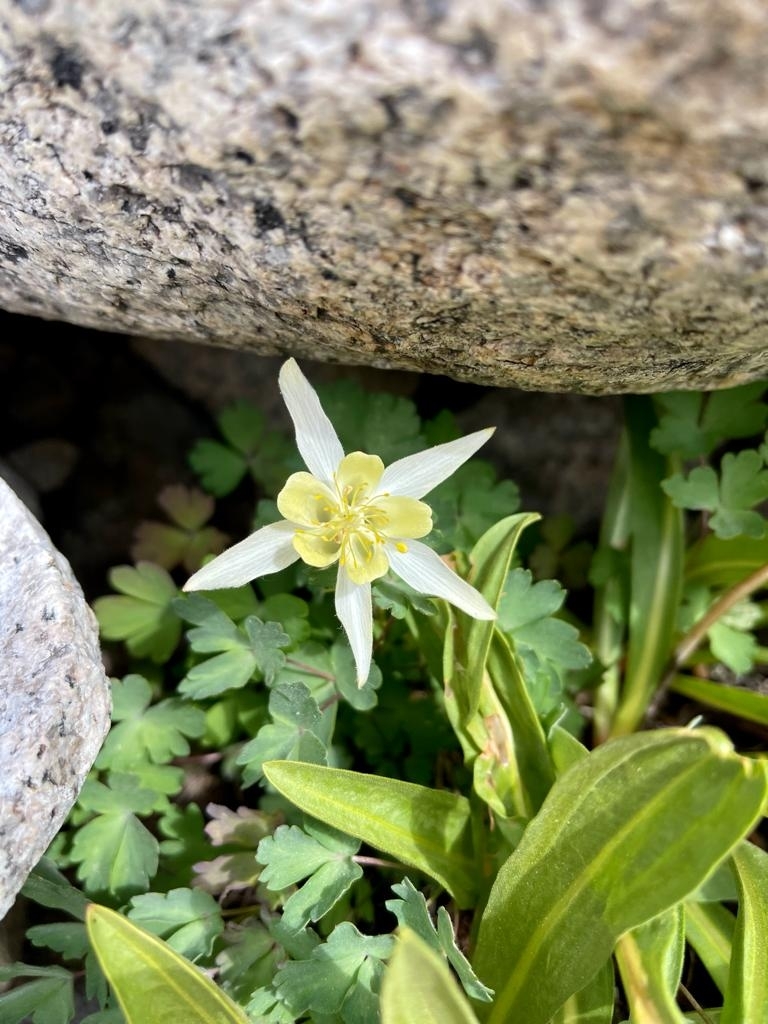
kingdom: Plantae
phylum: Tracheophyta
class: Magnoliopsida
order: Ranunculales
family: Ranunculaceae
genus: Aquilegia
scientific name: Aquilegia pubescens
